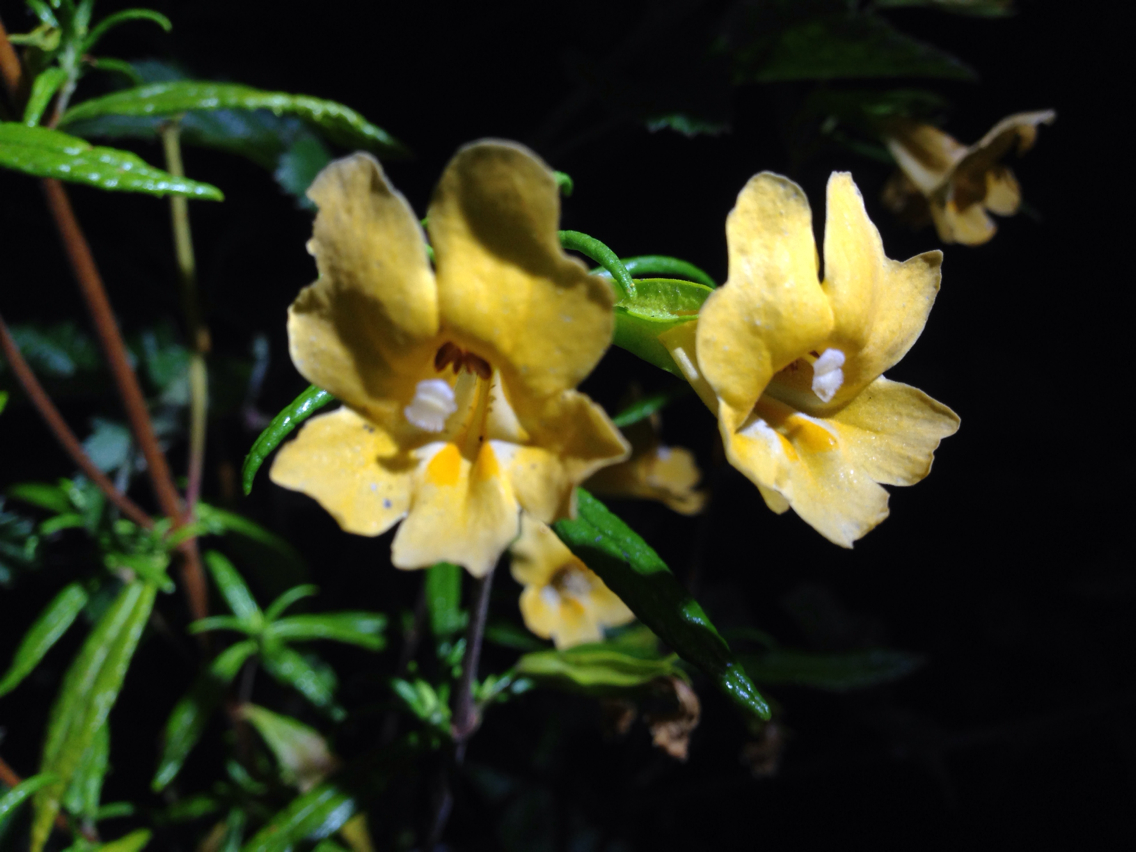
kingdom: Plantae
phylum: Tracheophyta
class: Magnoliopsida
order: Lamiales
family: Phrymaceae
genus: Diplacus
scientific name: Diplacus aurantiacus
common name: Bush monkey-flower
